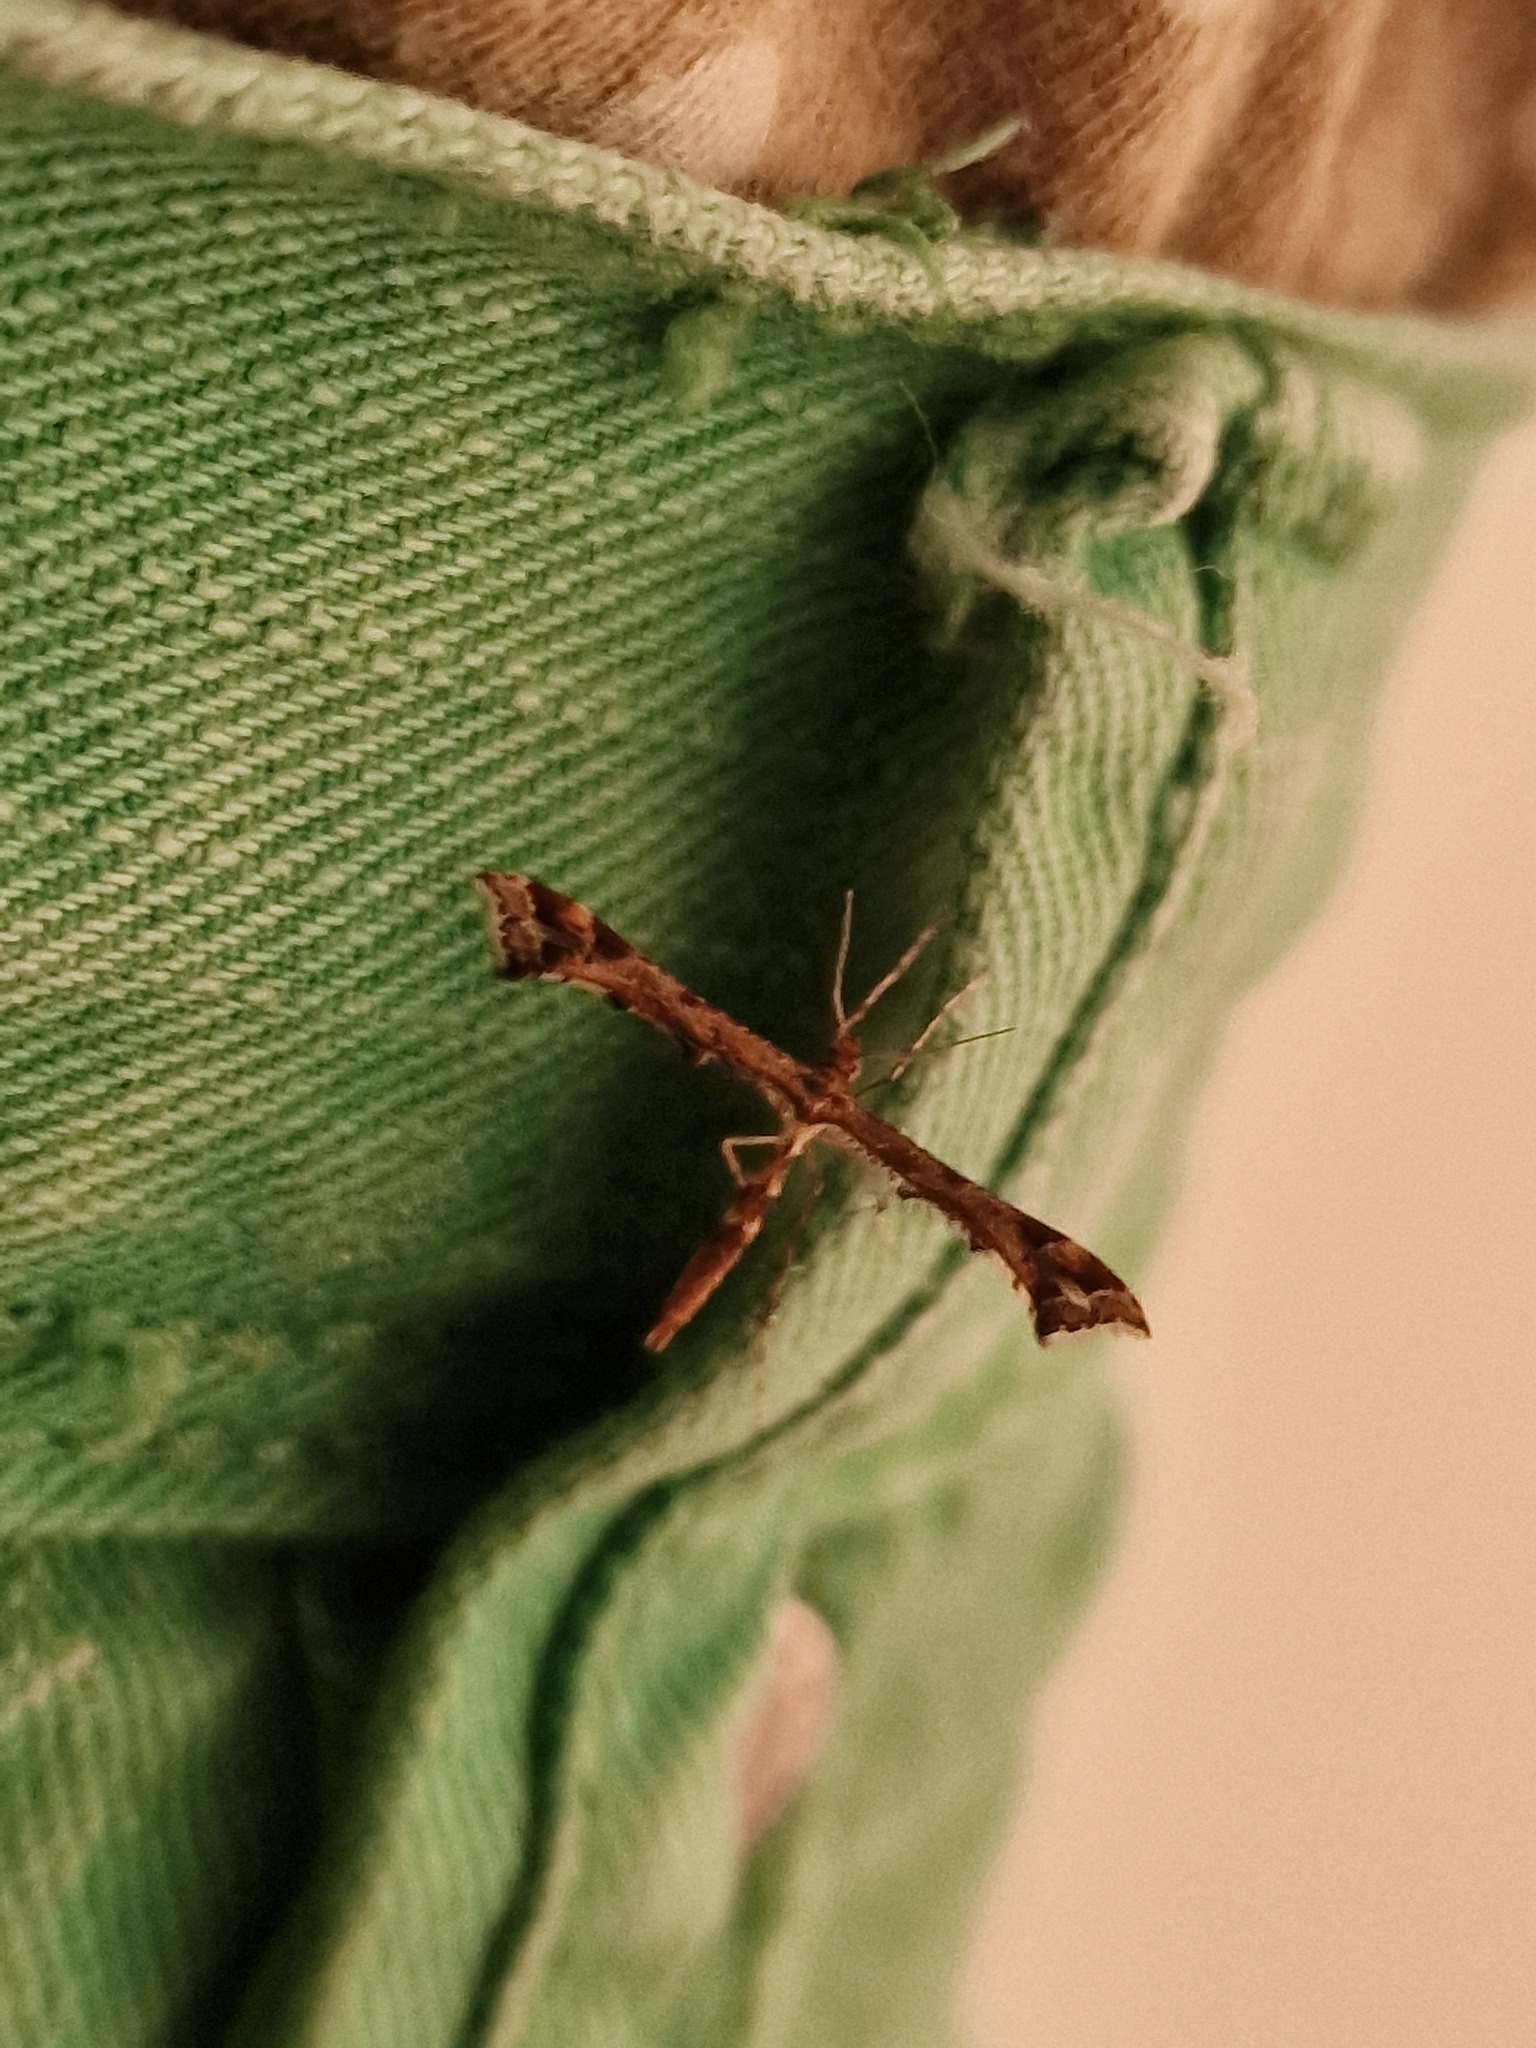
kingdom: Animalia
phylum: Arthropoda
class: Insecta
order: Lepidoptera
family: Pterophoridae
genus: Amblyptilia
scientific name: Amblyptilia acanthadactyla
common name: Beautiful plume
